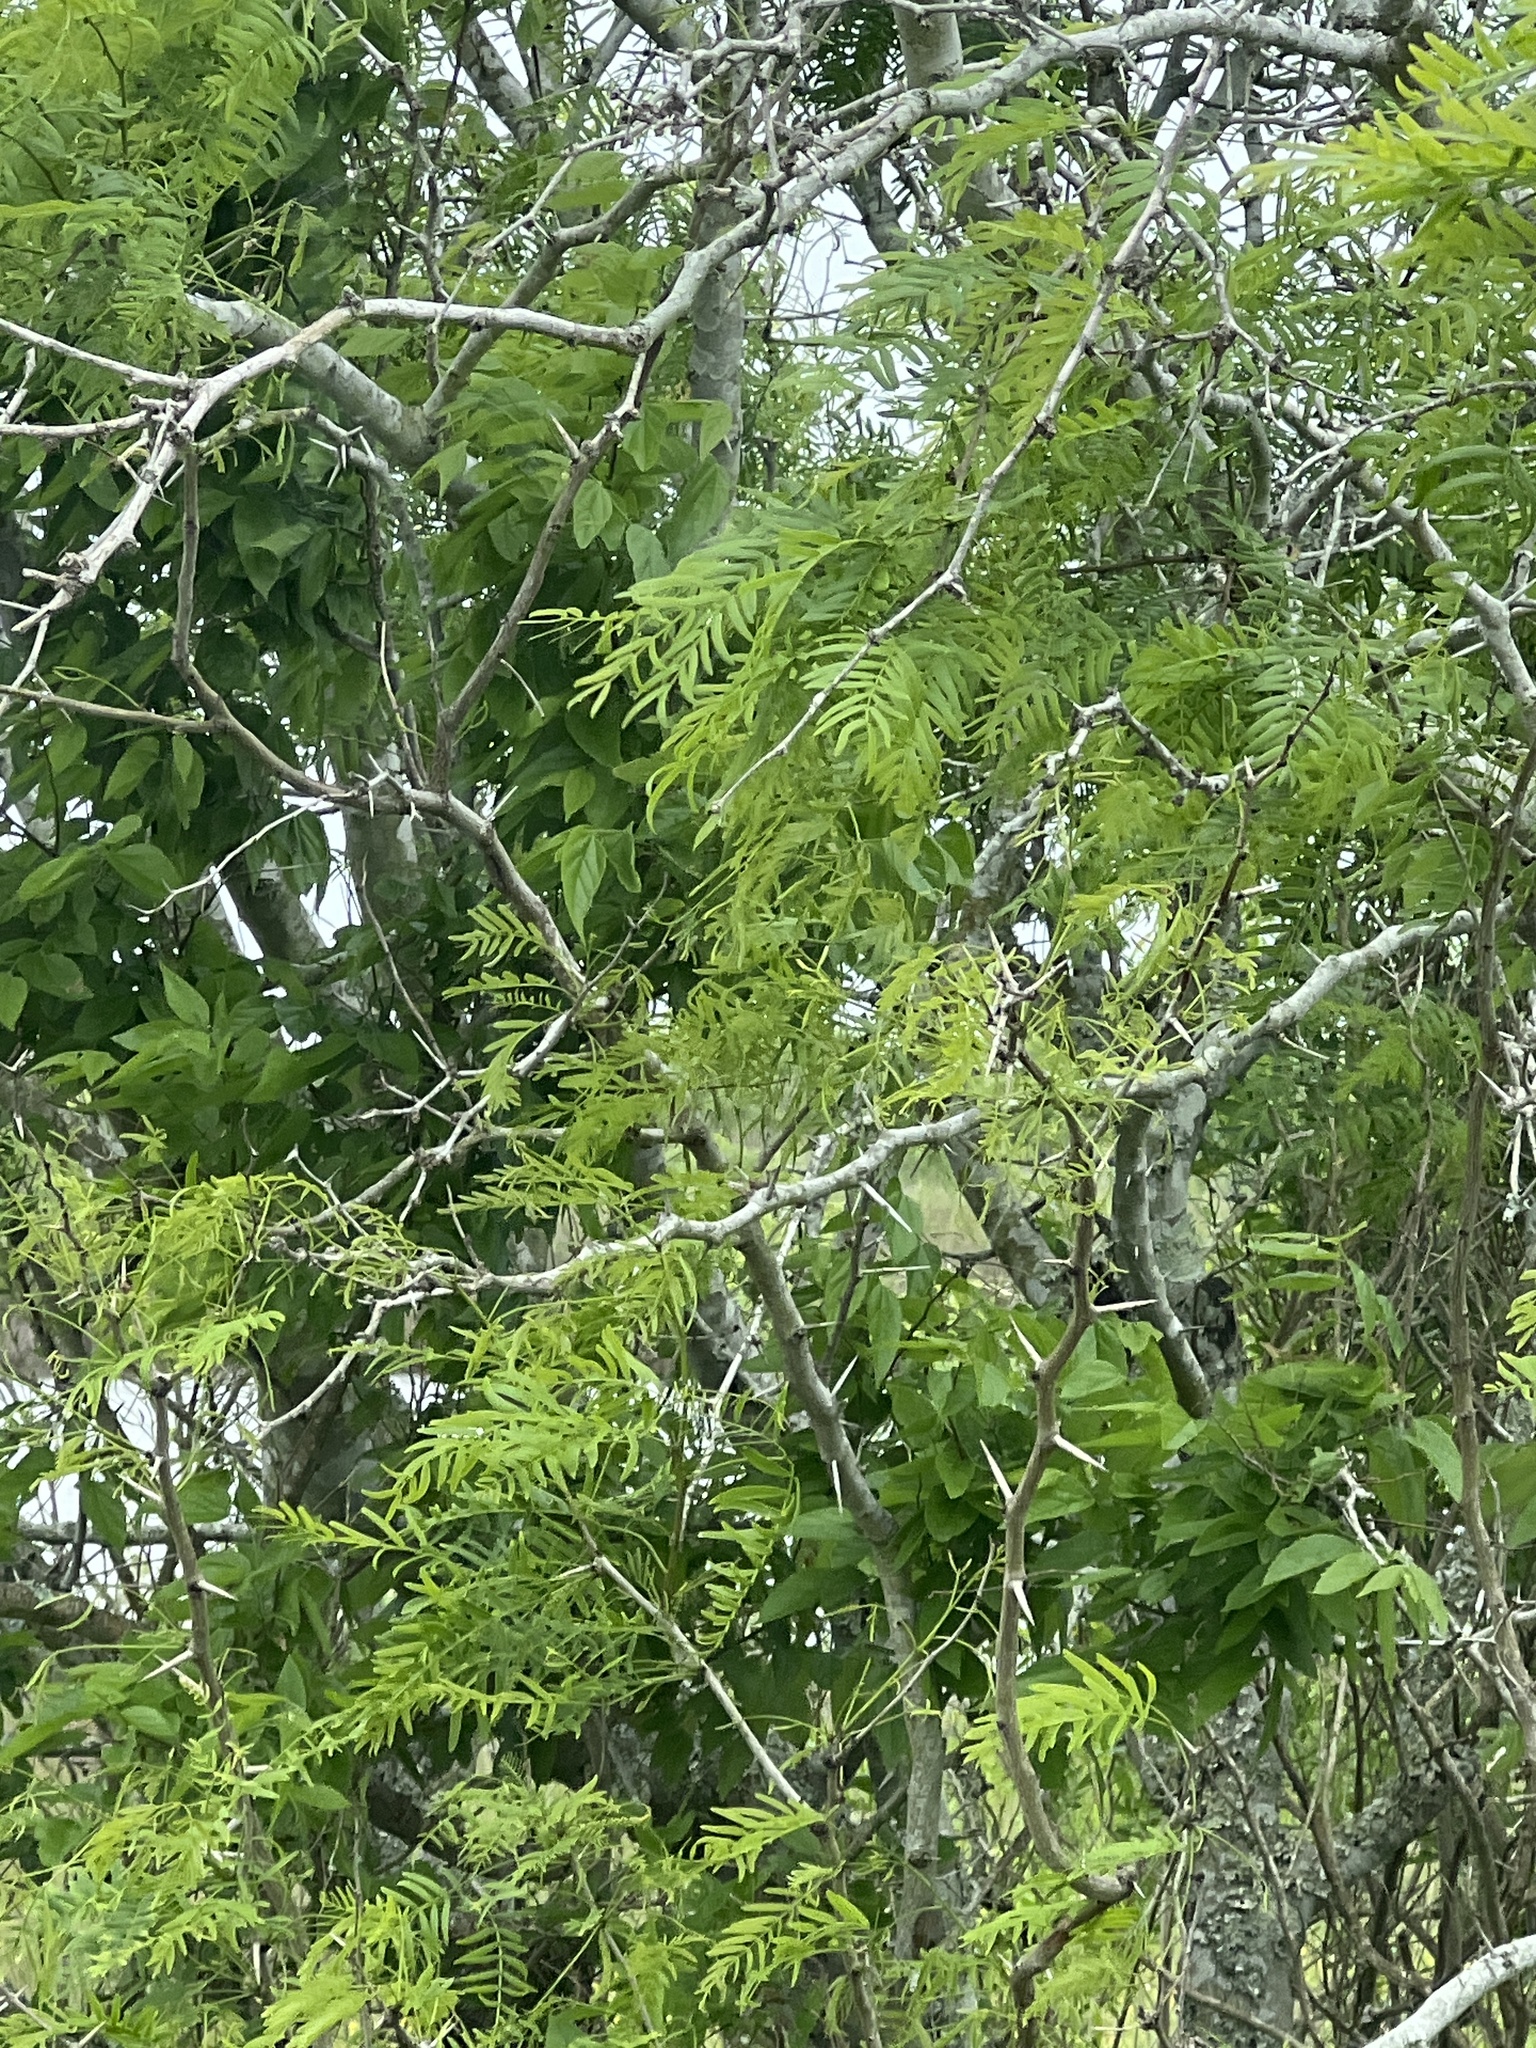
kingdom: Plantae
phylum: Tracheophyta
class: Magnoliopsida
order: Fabales
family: Fabaceae
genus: Prosopis
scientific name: Prosopis glandulosa
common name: Honey mesquite
